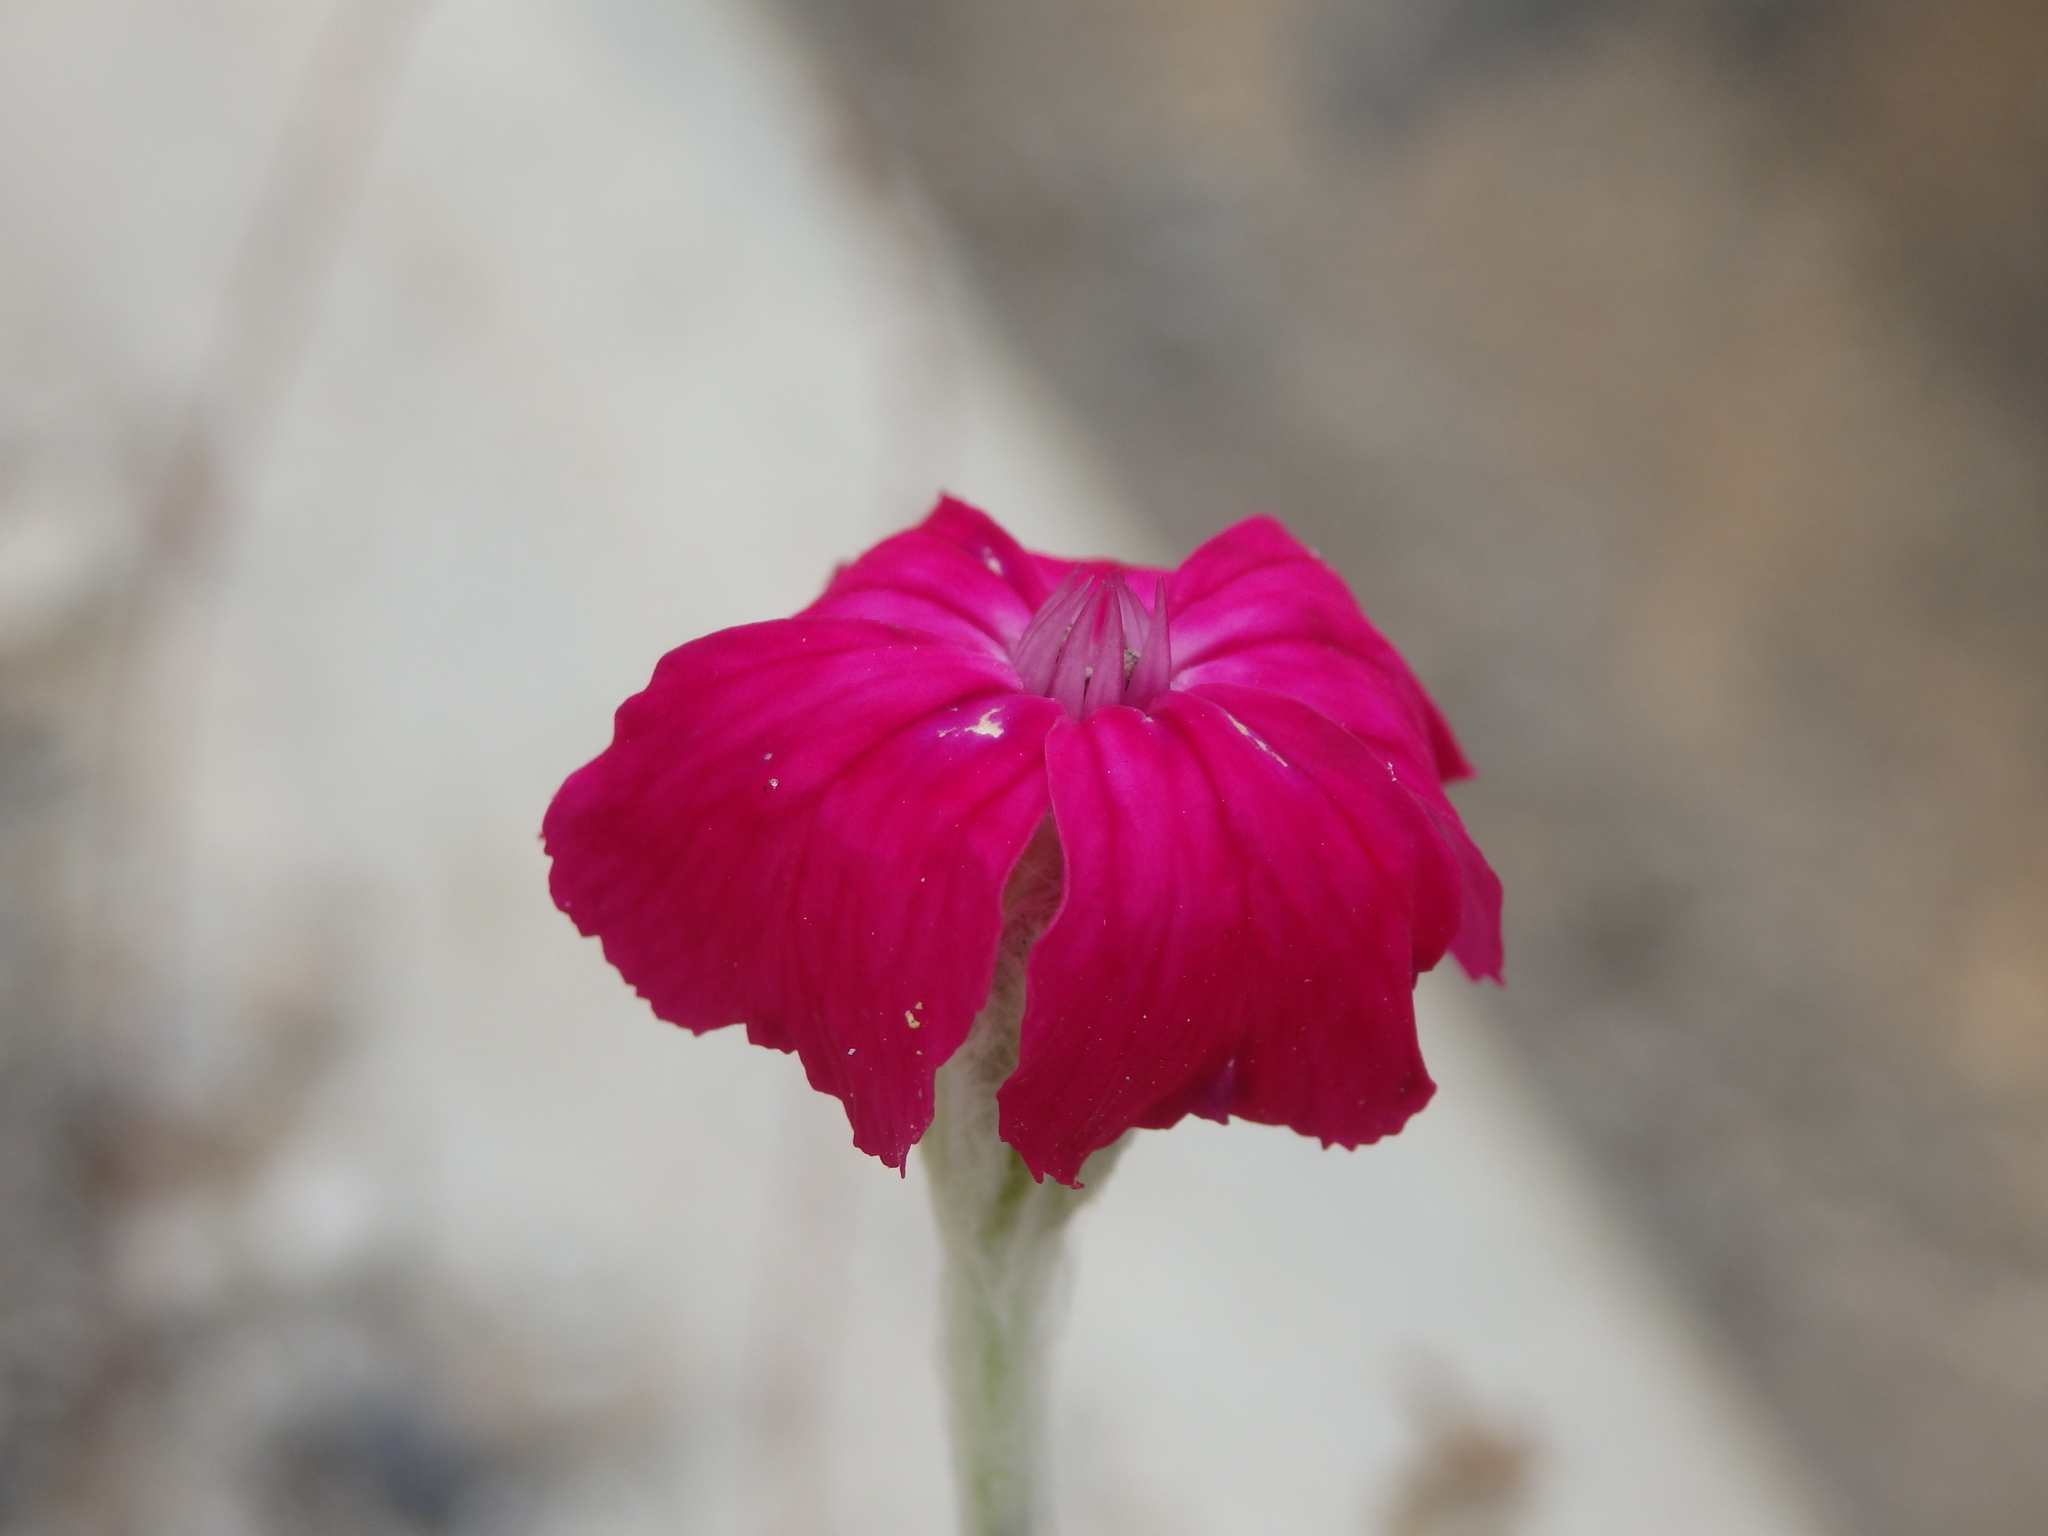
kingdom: Plantae
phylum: Tracheophyta
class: Magnoliopsida
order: Caryophyllales
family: Caryophyllaceae
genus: Silene
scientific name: Silene coronaria
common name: Rose campion
